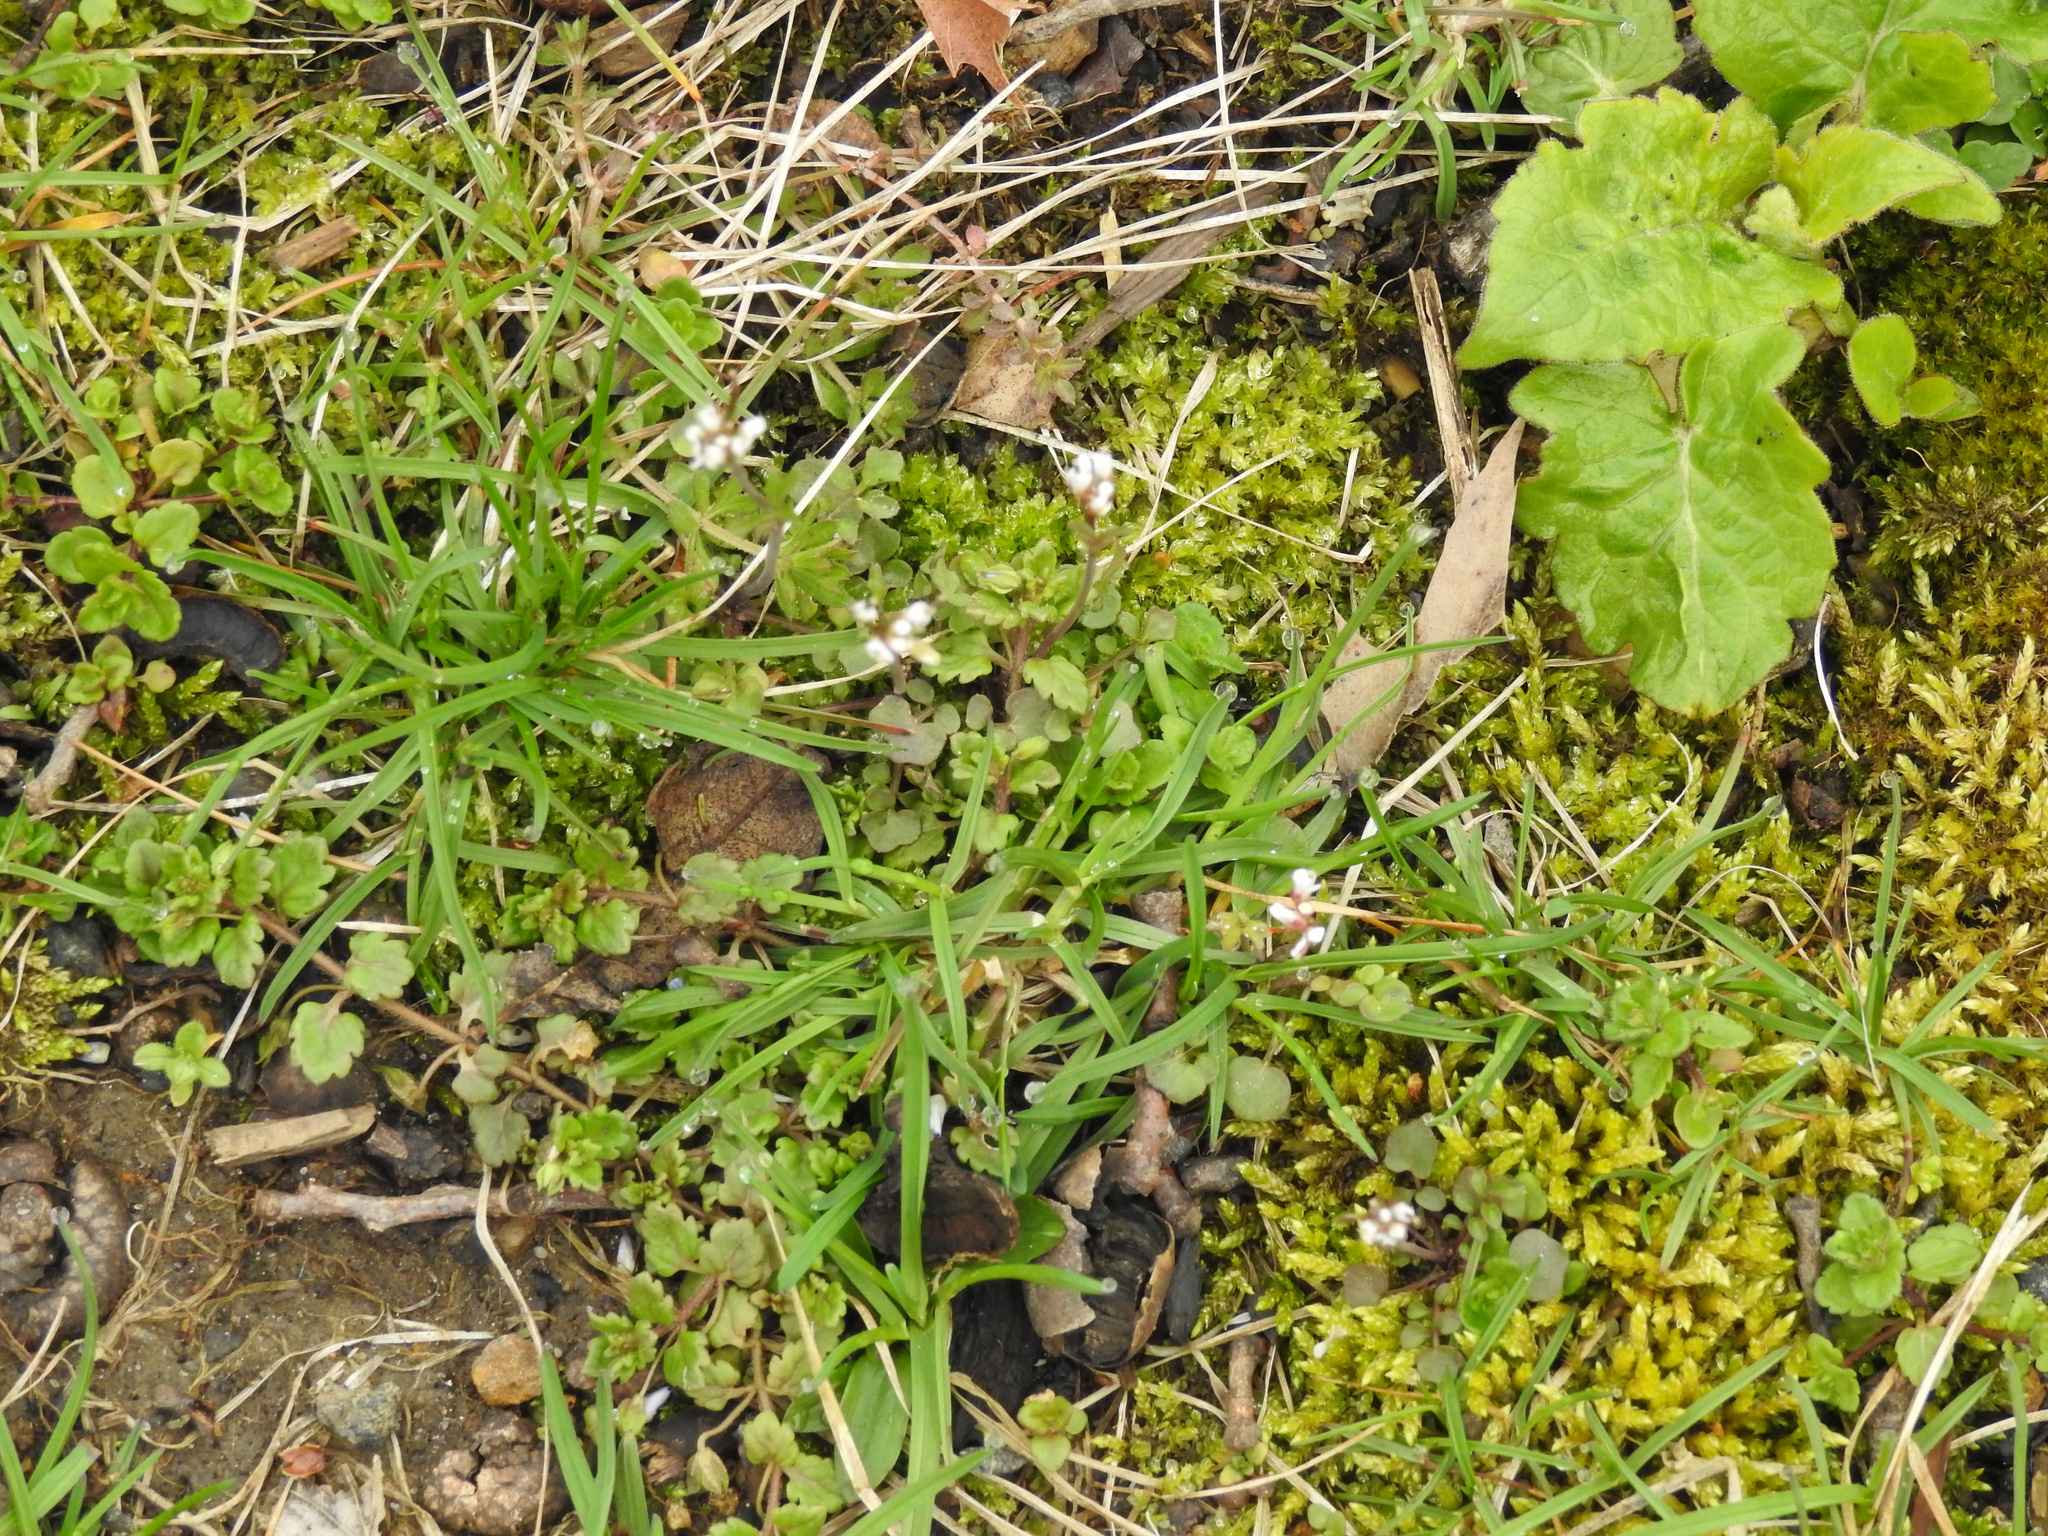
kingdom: Plantae
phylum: Tracheophyta
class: Magnoliopsida
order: Brassicales
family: Brassicaceae
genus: Cardamine
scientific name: Cardamine hirsuta
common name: Hairy bittercress
